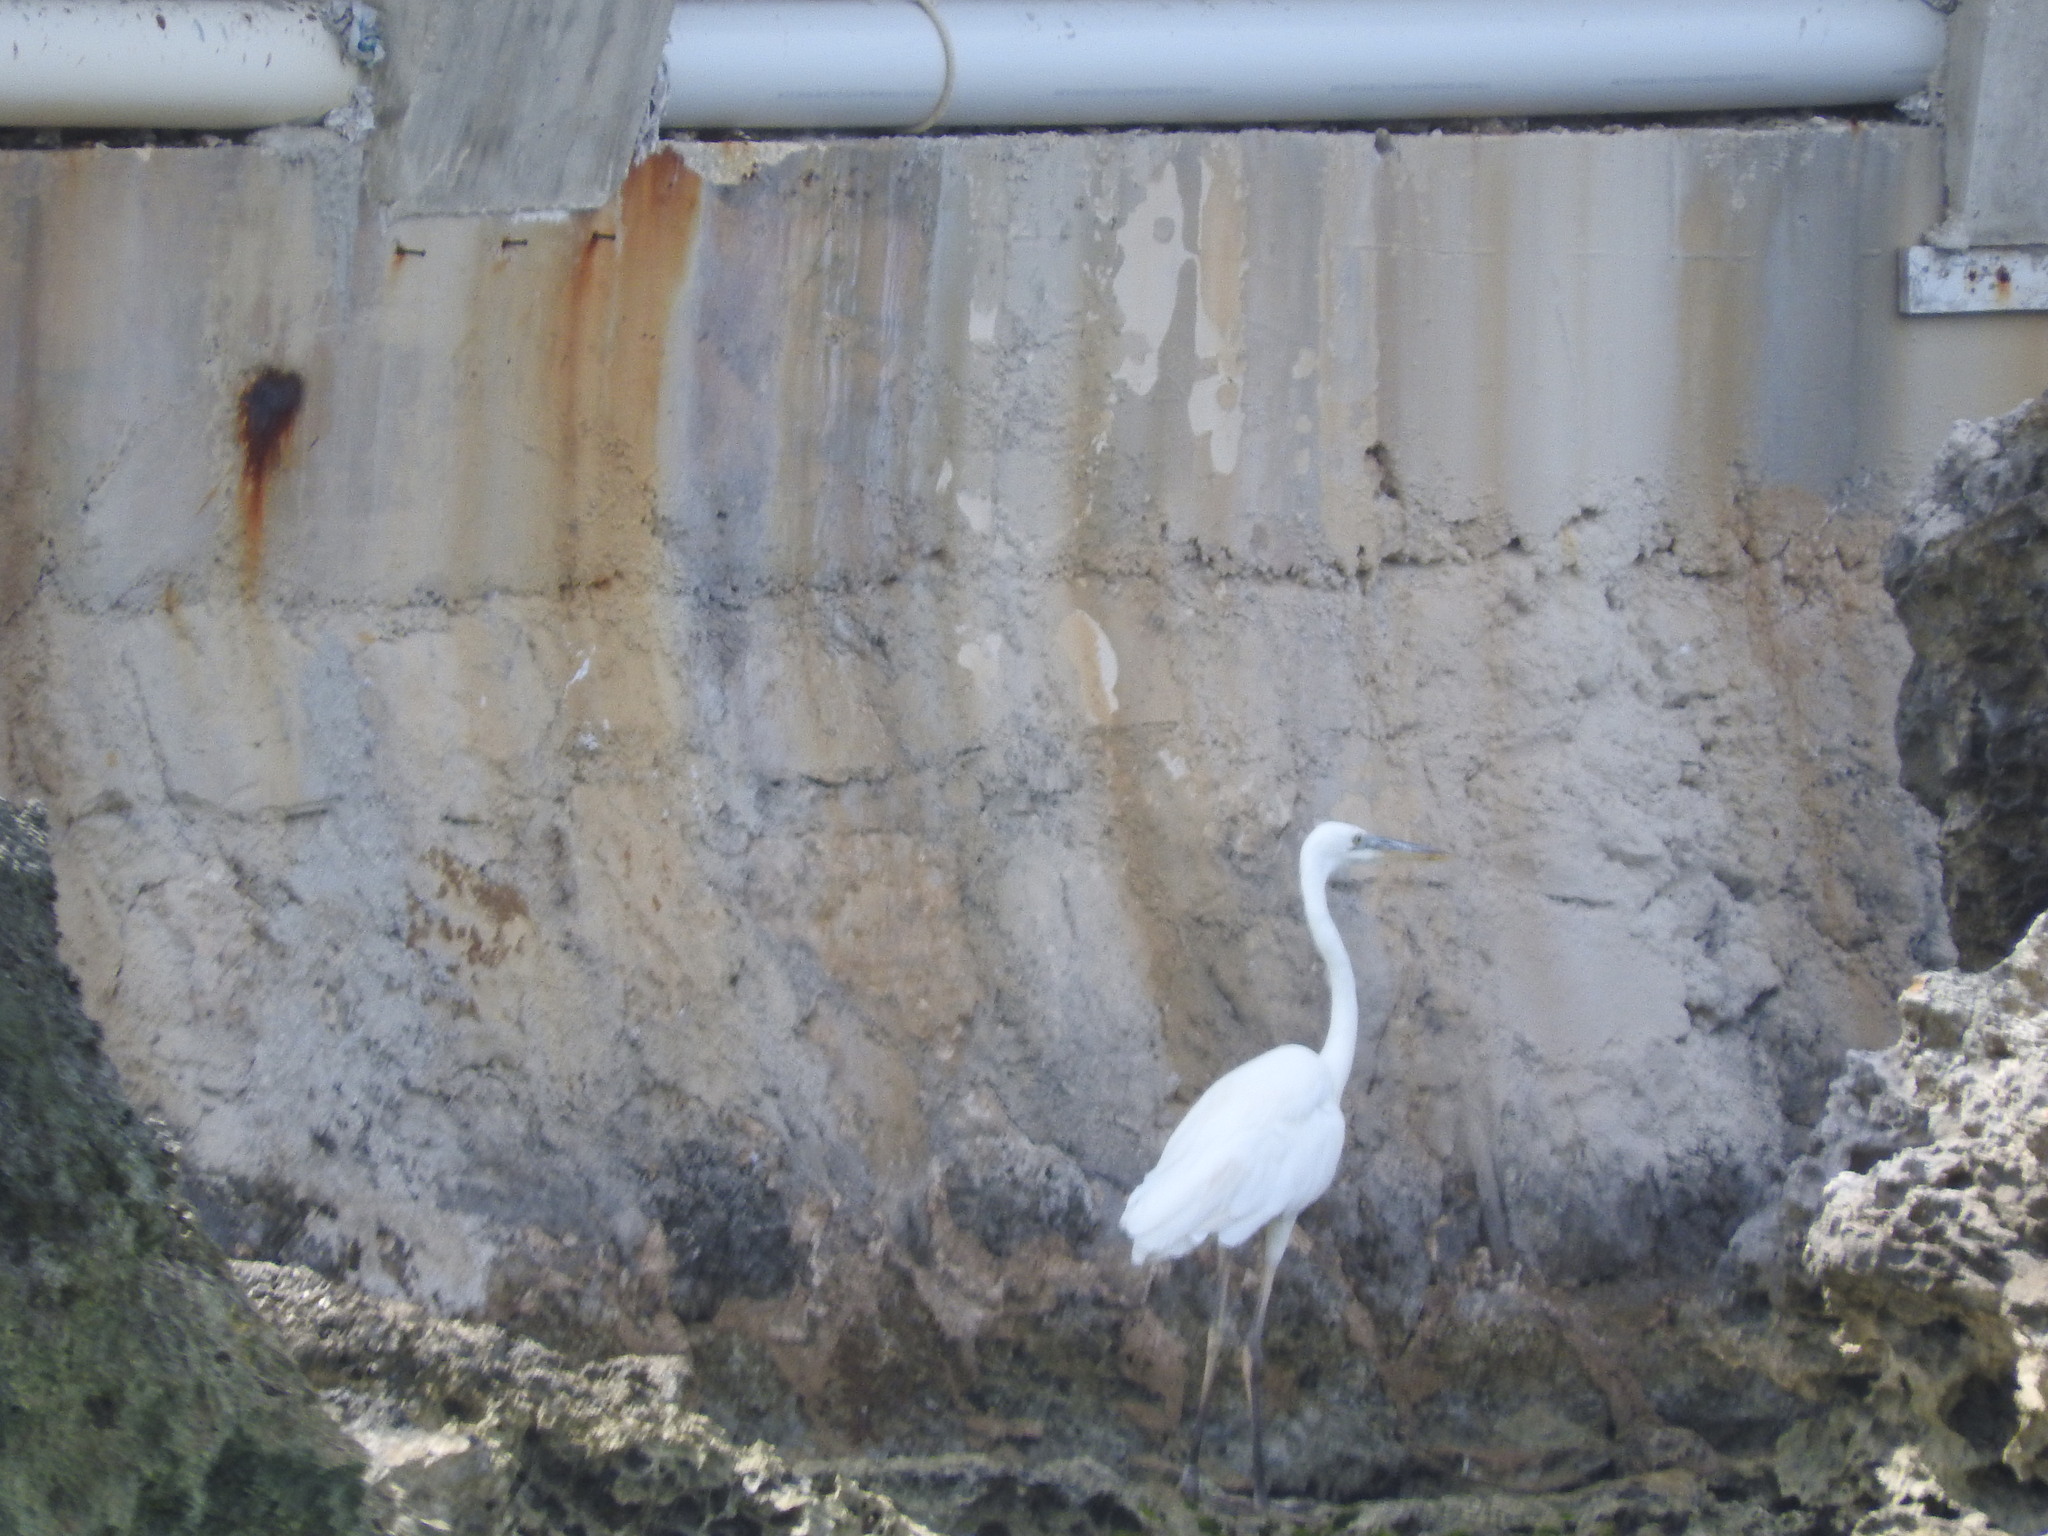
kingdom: Animalia
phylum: Chordata
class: Aves
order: Pelecaniformes
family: Ardeidae
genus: Ardea
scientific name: Ardea herodias
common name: Great blue heron
